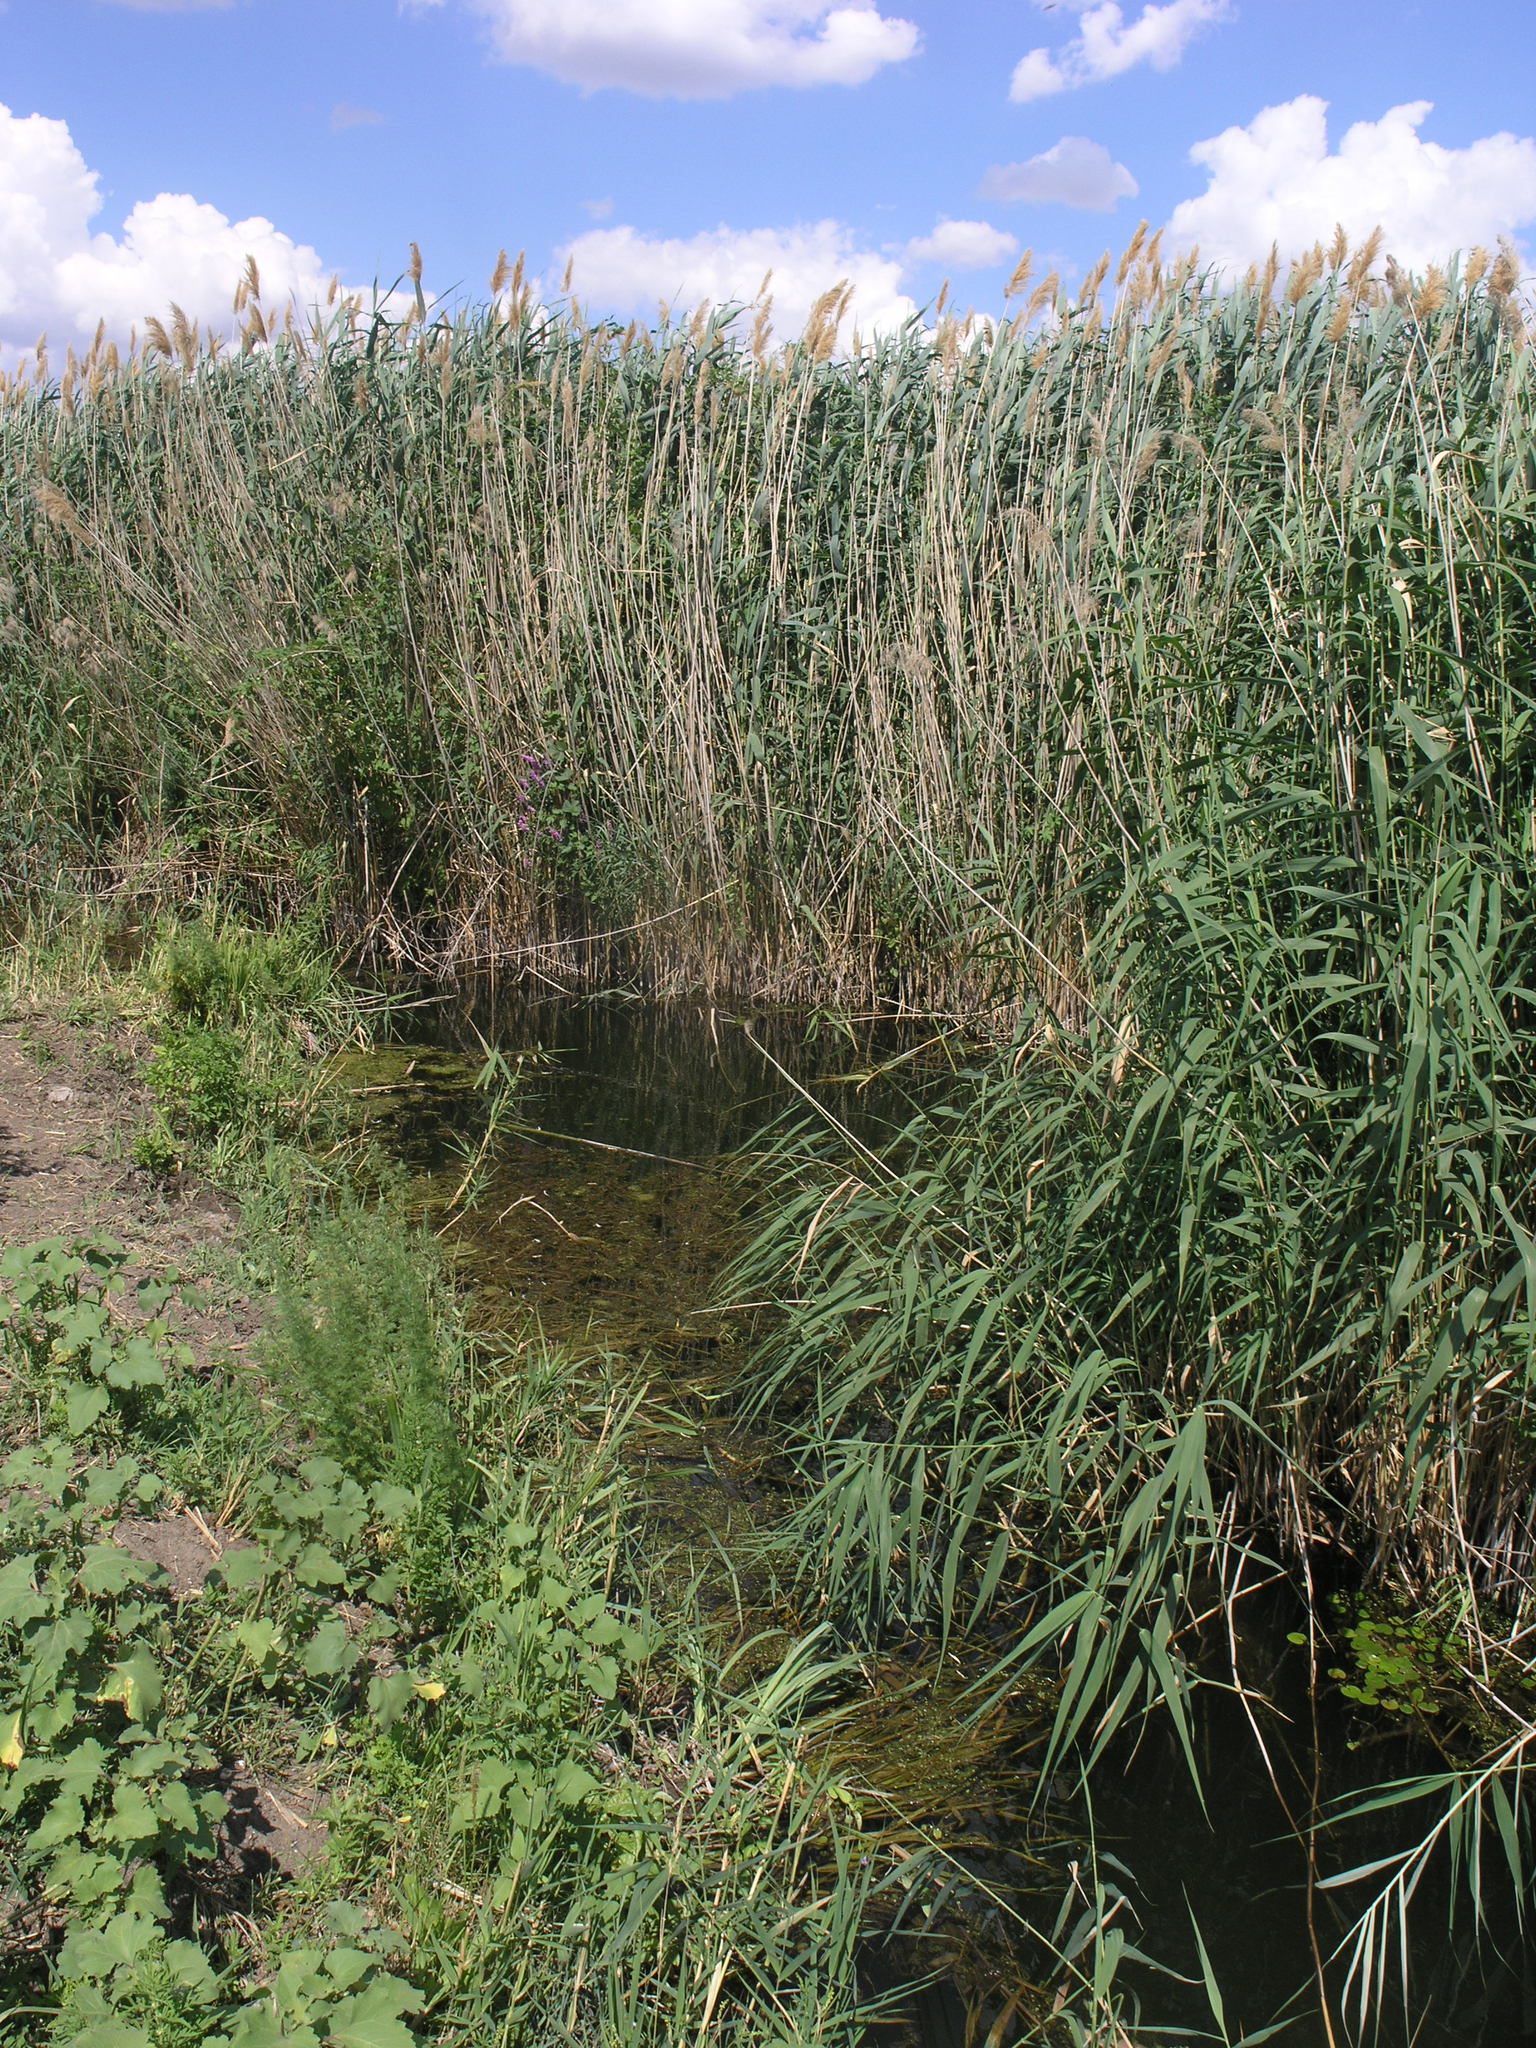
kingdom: Plantae
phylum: Tracheophyta
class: Liliopsida
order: Poales
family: Poaceae
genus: Phragmites
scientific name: Phragmites australis
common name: Common reed
